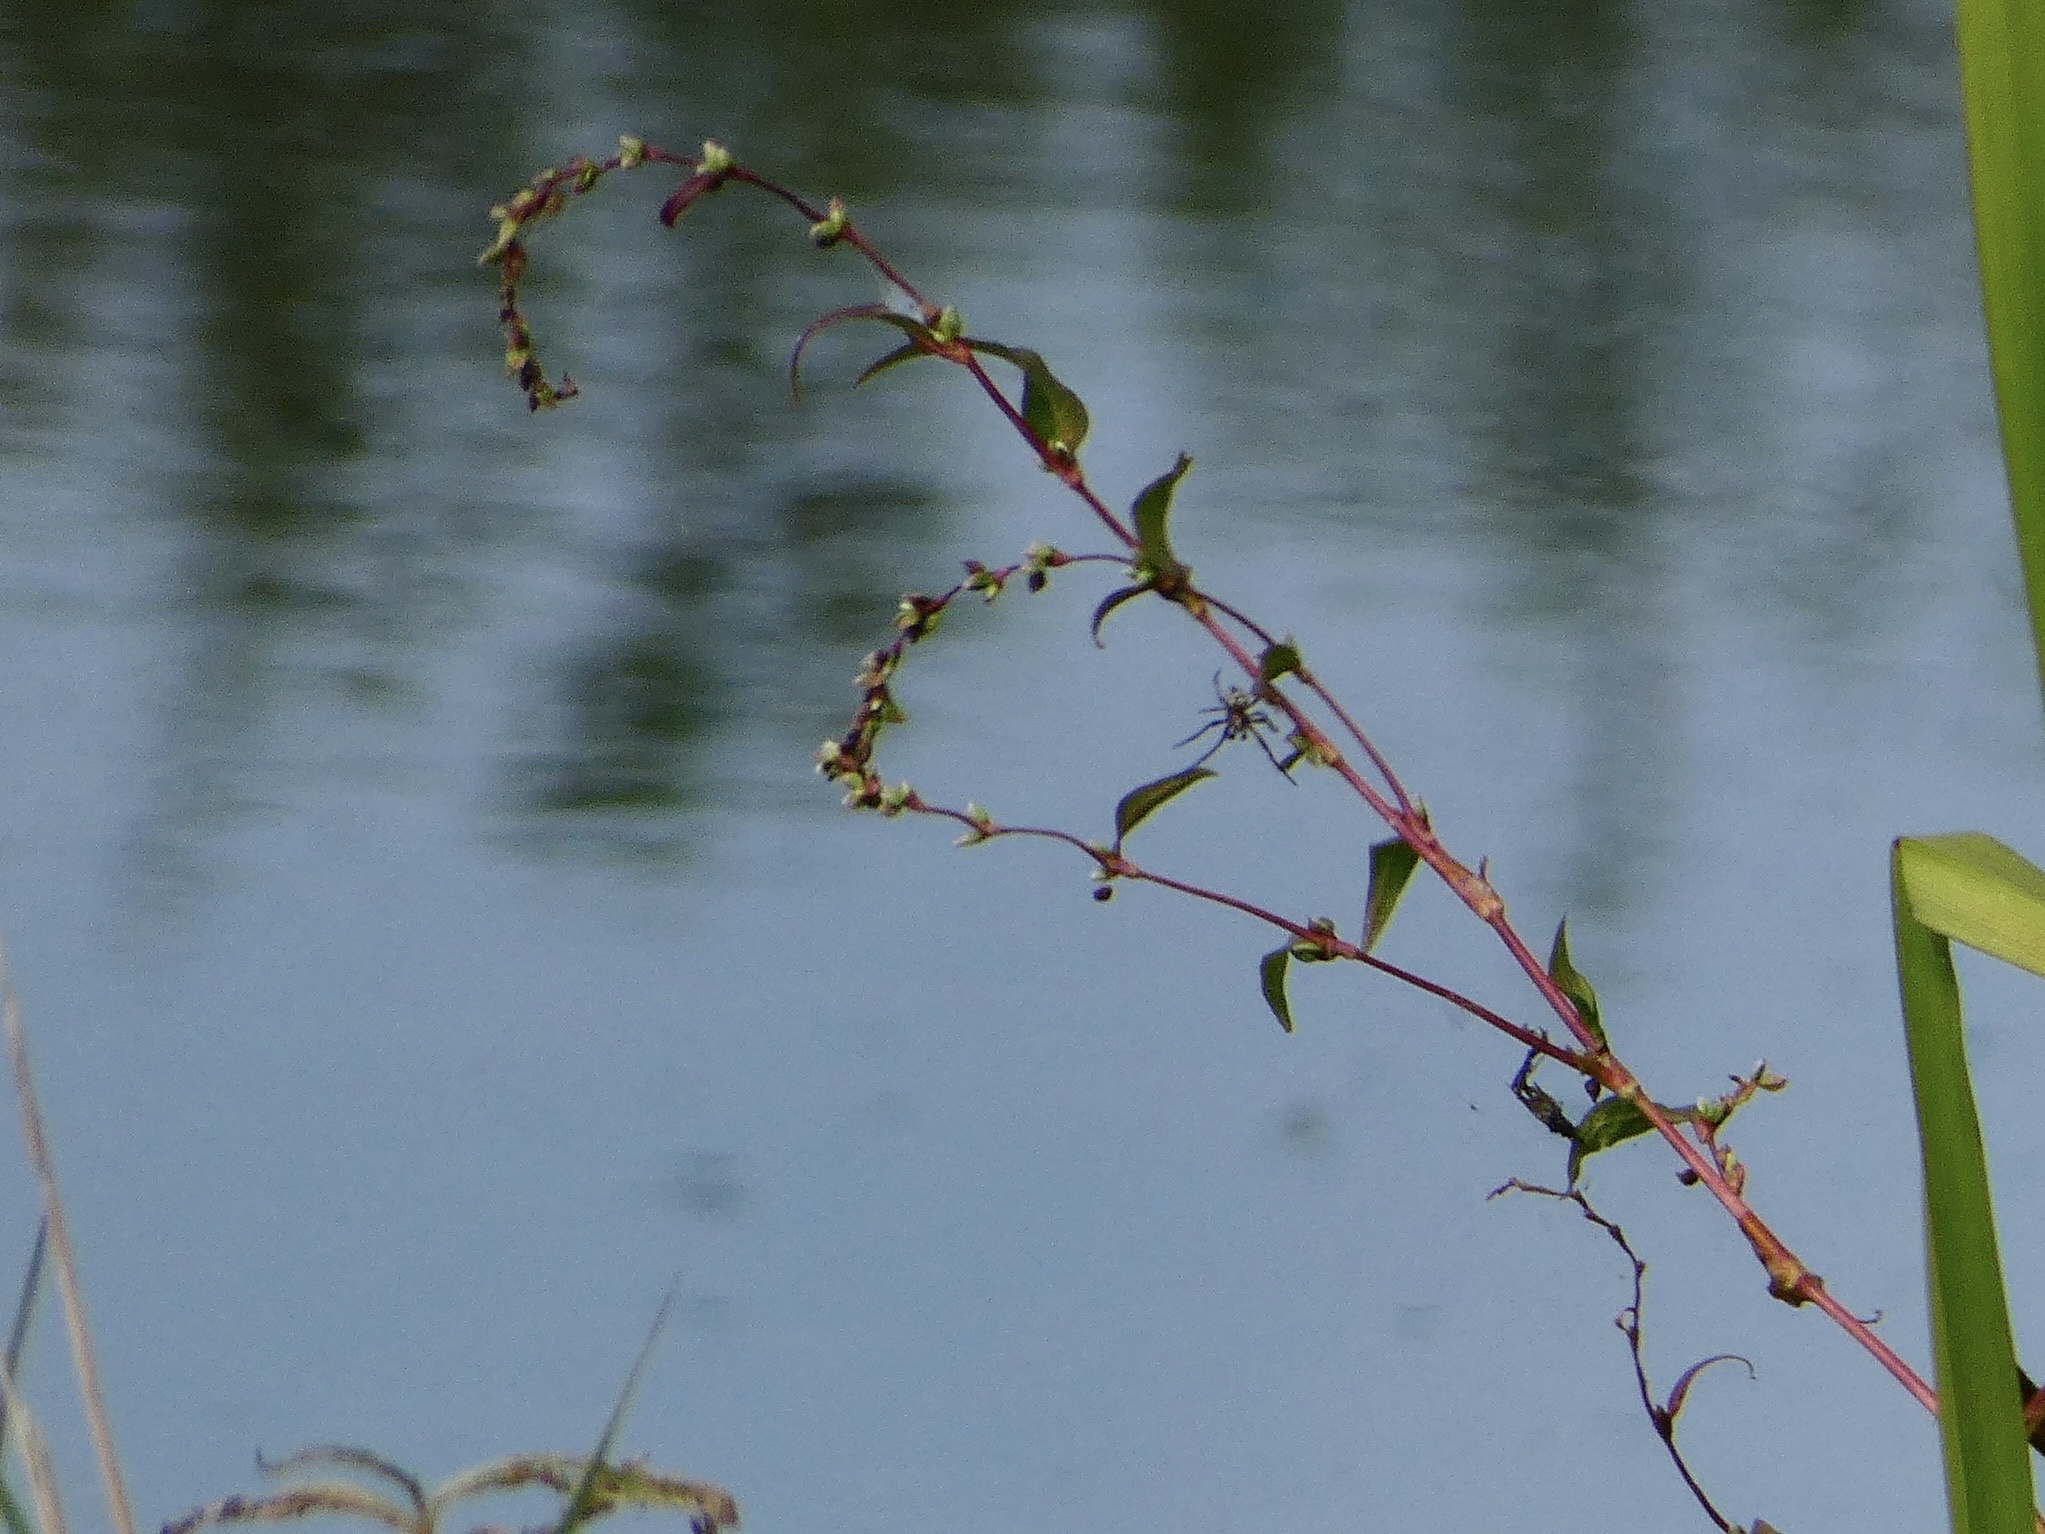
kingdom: Plantae
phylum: Tracheophyta
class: Magnoliopsida
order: Caryophyllales
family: Polygonaceae
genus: Persicaria
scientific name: Persicaria hydropiper
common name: Water-pepper
